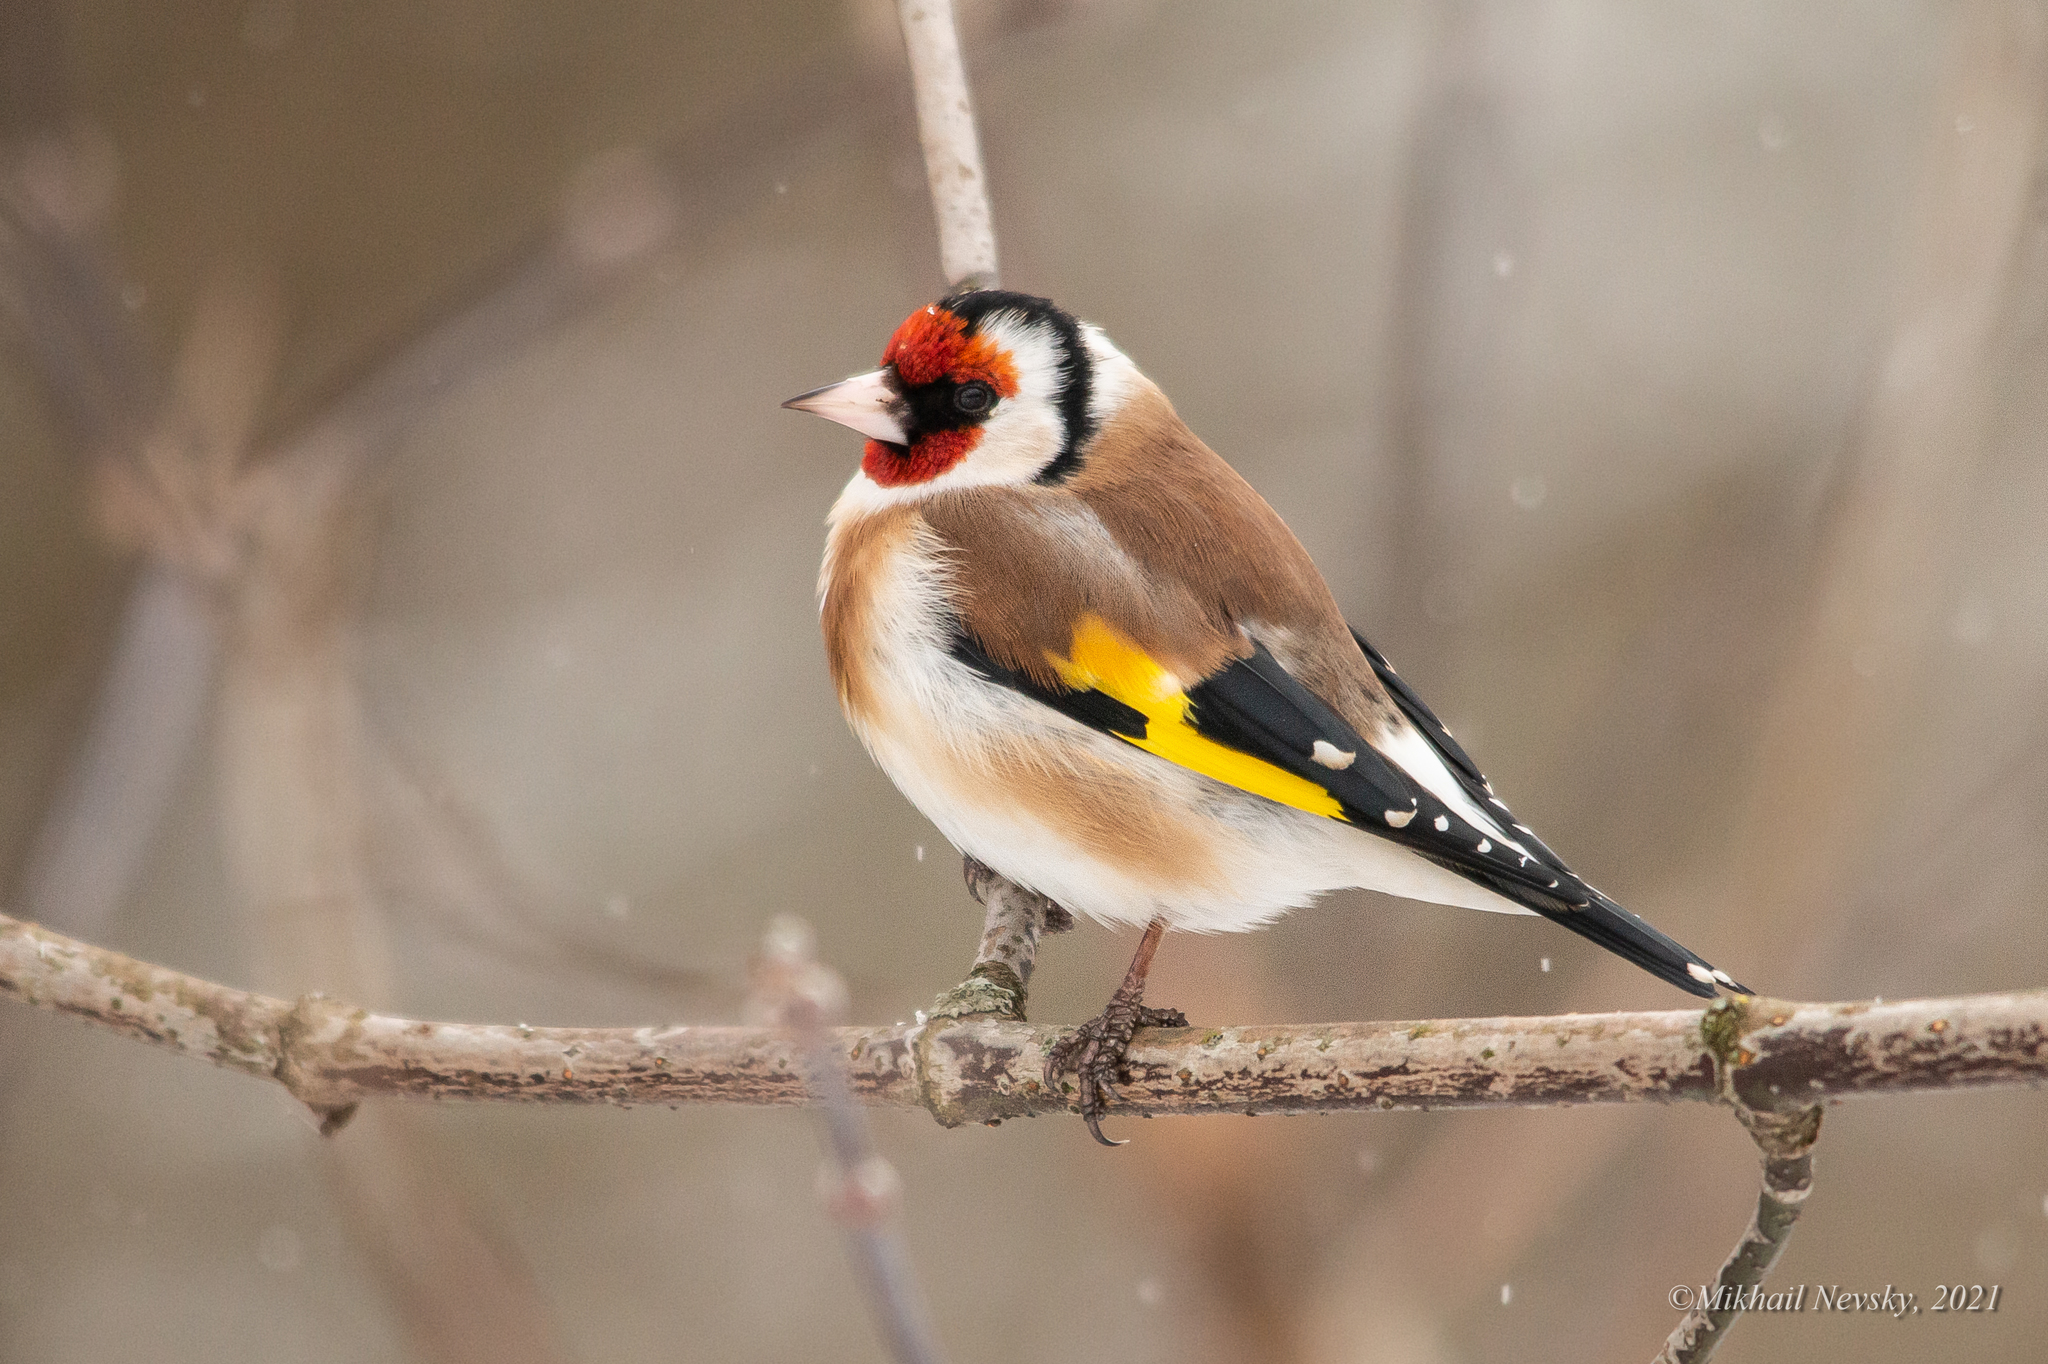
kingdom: Animalia
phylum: Chordata
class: Aves
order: Passeriformes
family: Fringillidae
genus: Carduelis
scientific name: Carduelis carduelis
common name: European goldfinch
